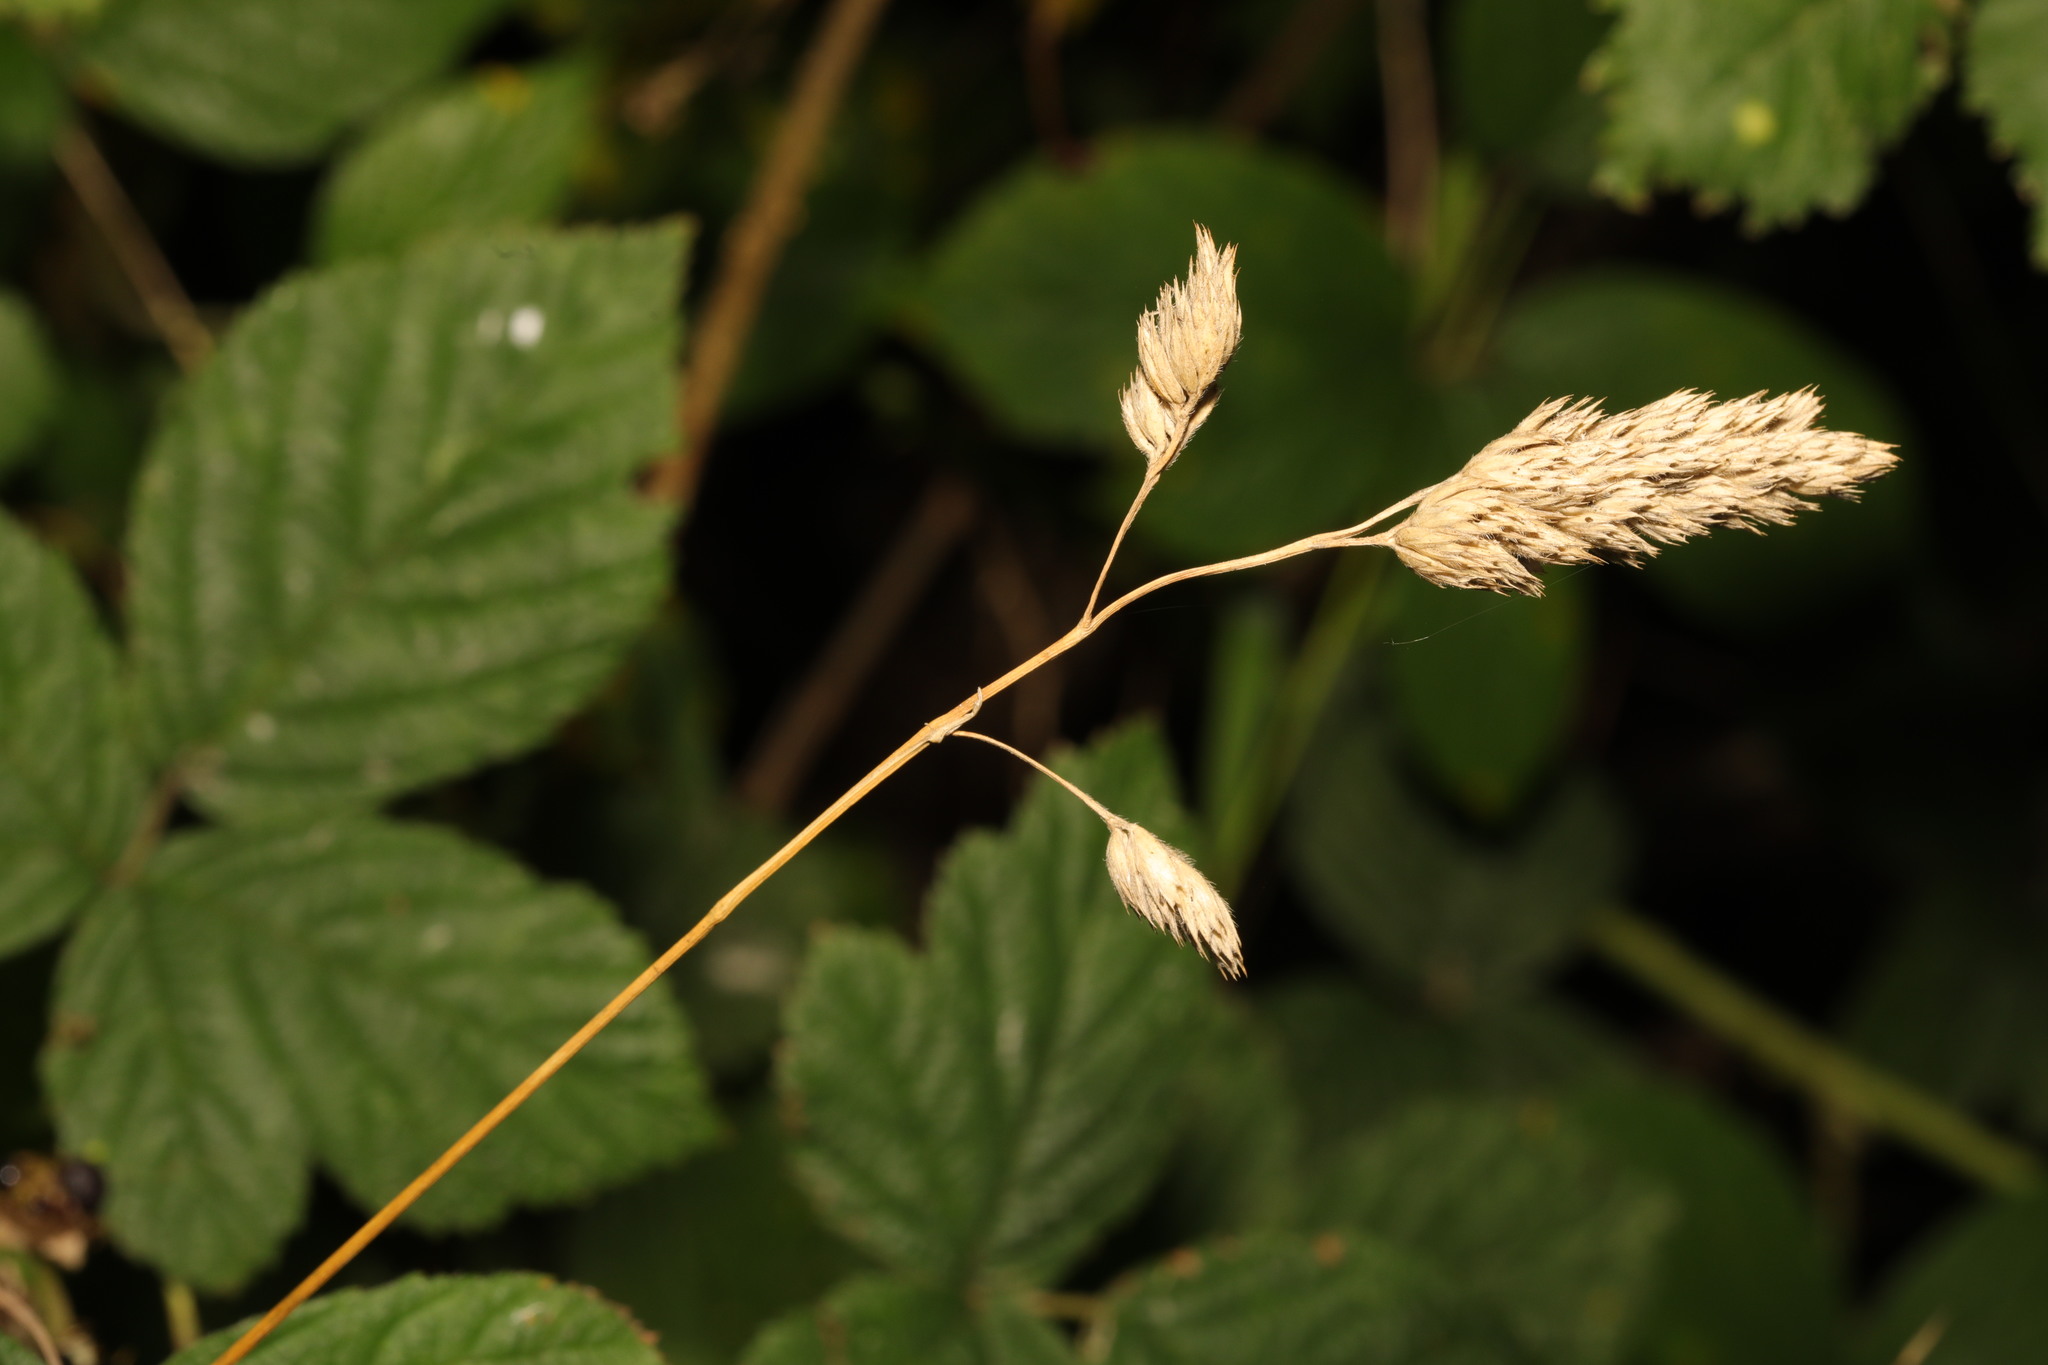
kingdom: Plantae
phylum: Tracheophyta
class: Liliopsida
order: Poales
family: Poaceae
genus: Dactylis
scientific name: Dactylis glomerata
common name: Orchardgrass
